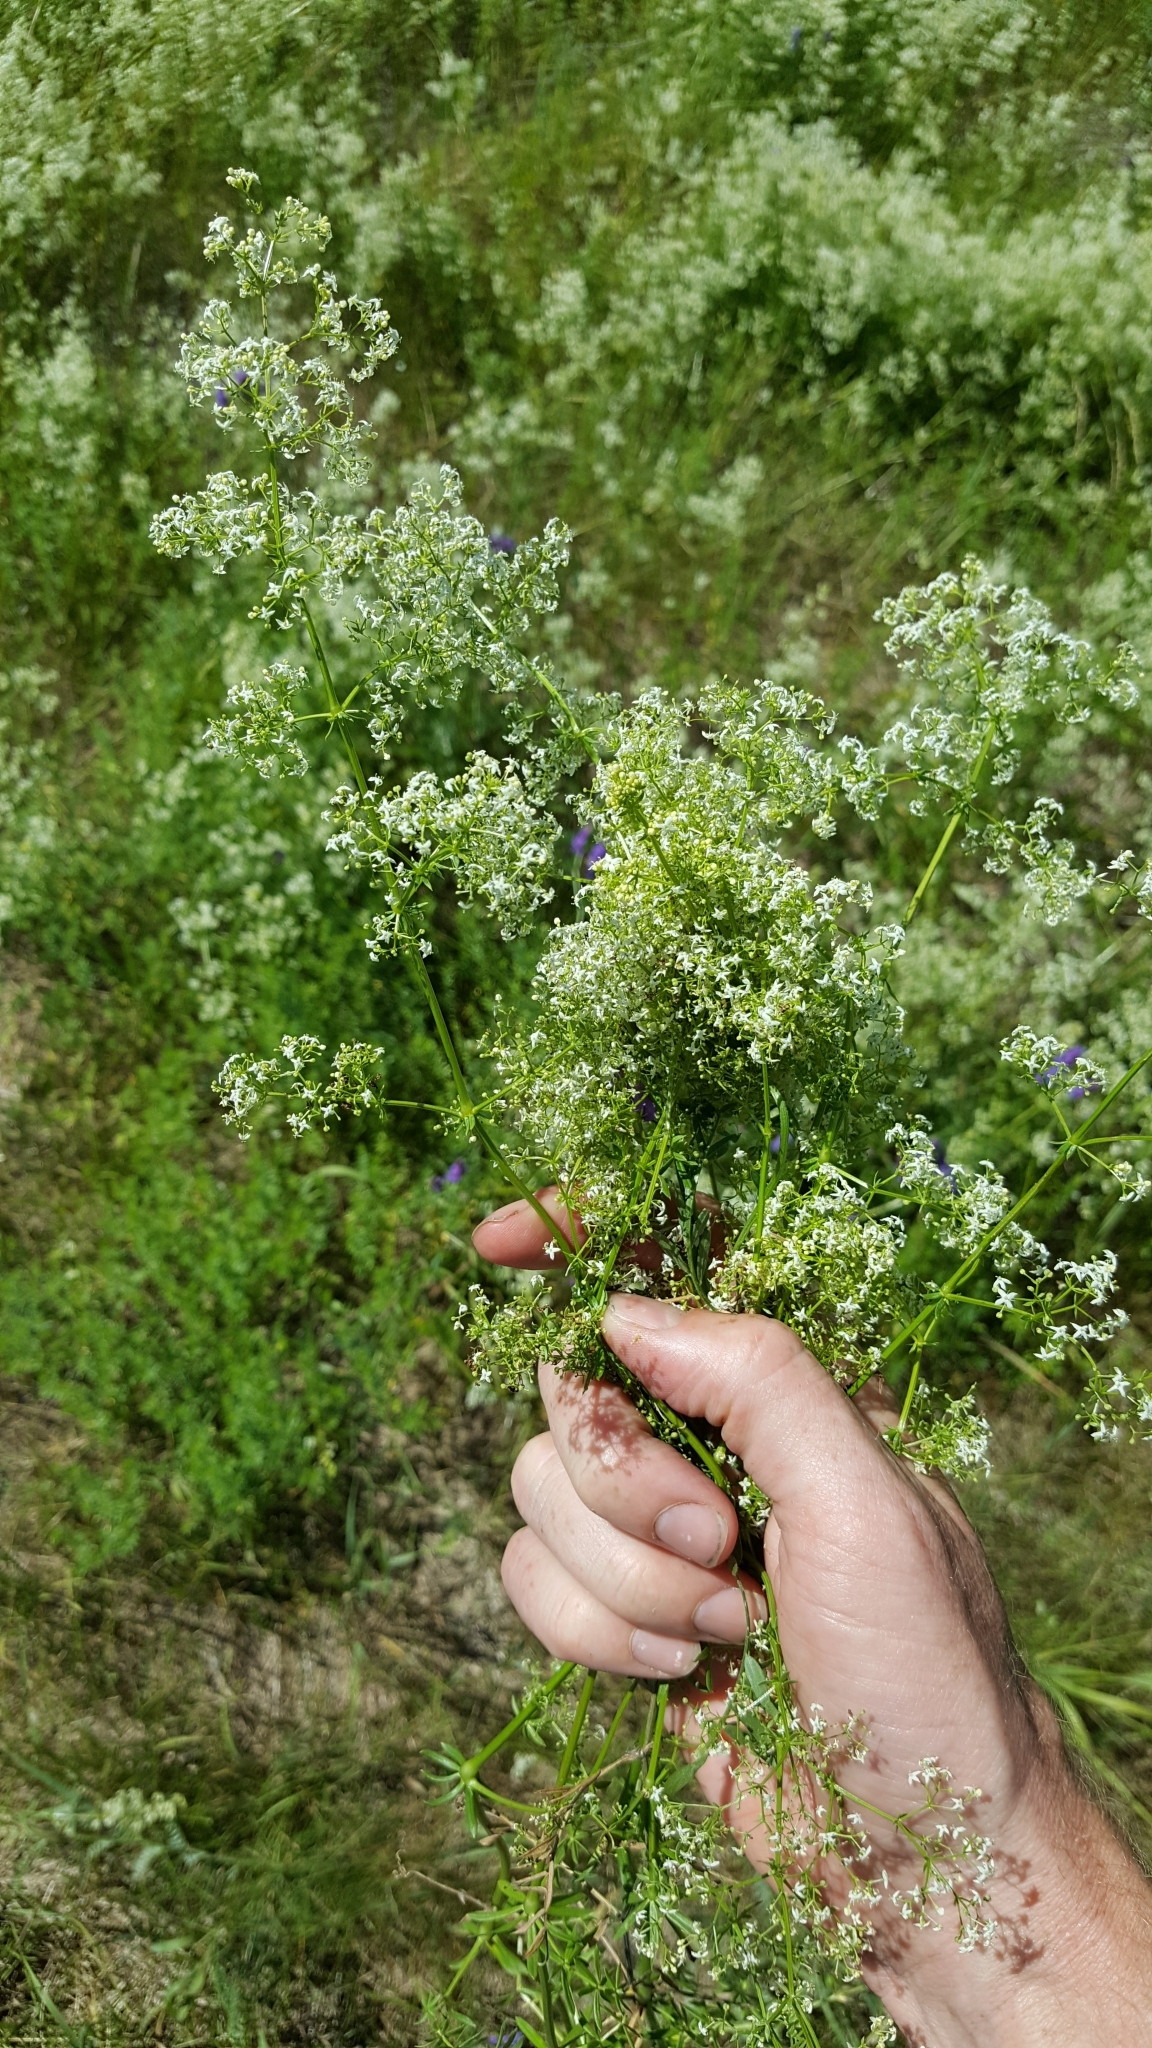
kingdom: Plantae
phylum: Tracheophyta
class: Magnoliopsida
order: Gentianales
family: Rubiaceae
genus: Galium
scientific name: Galium mollugo
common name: Hedge bedstraw
